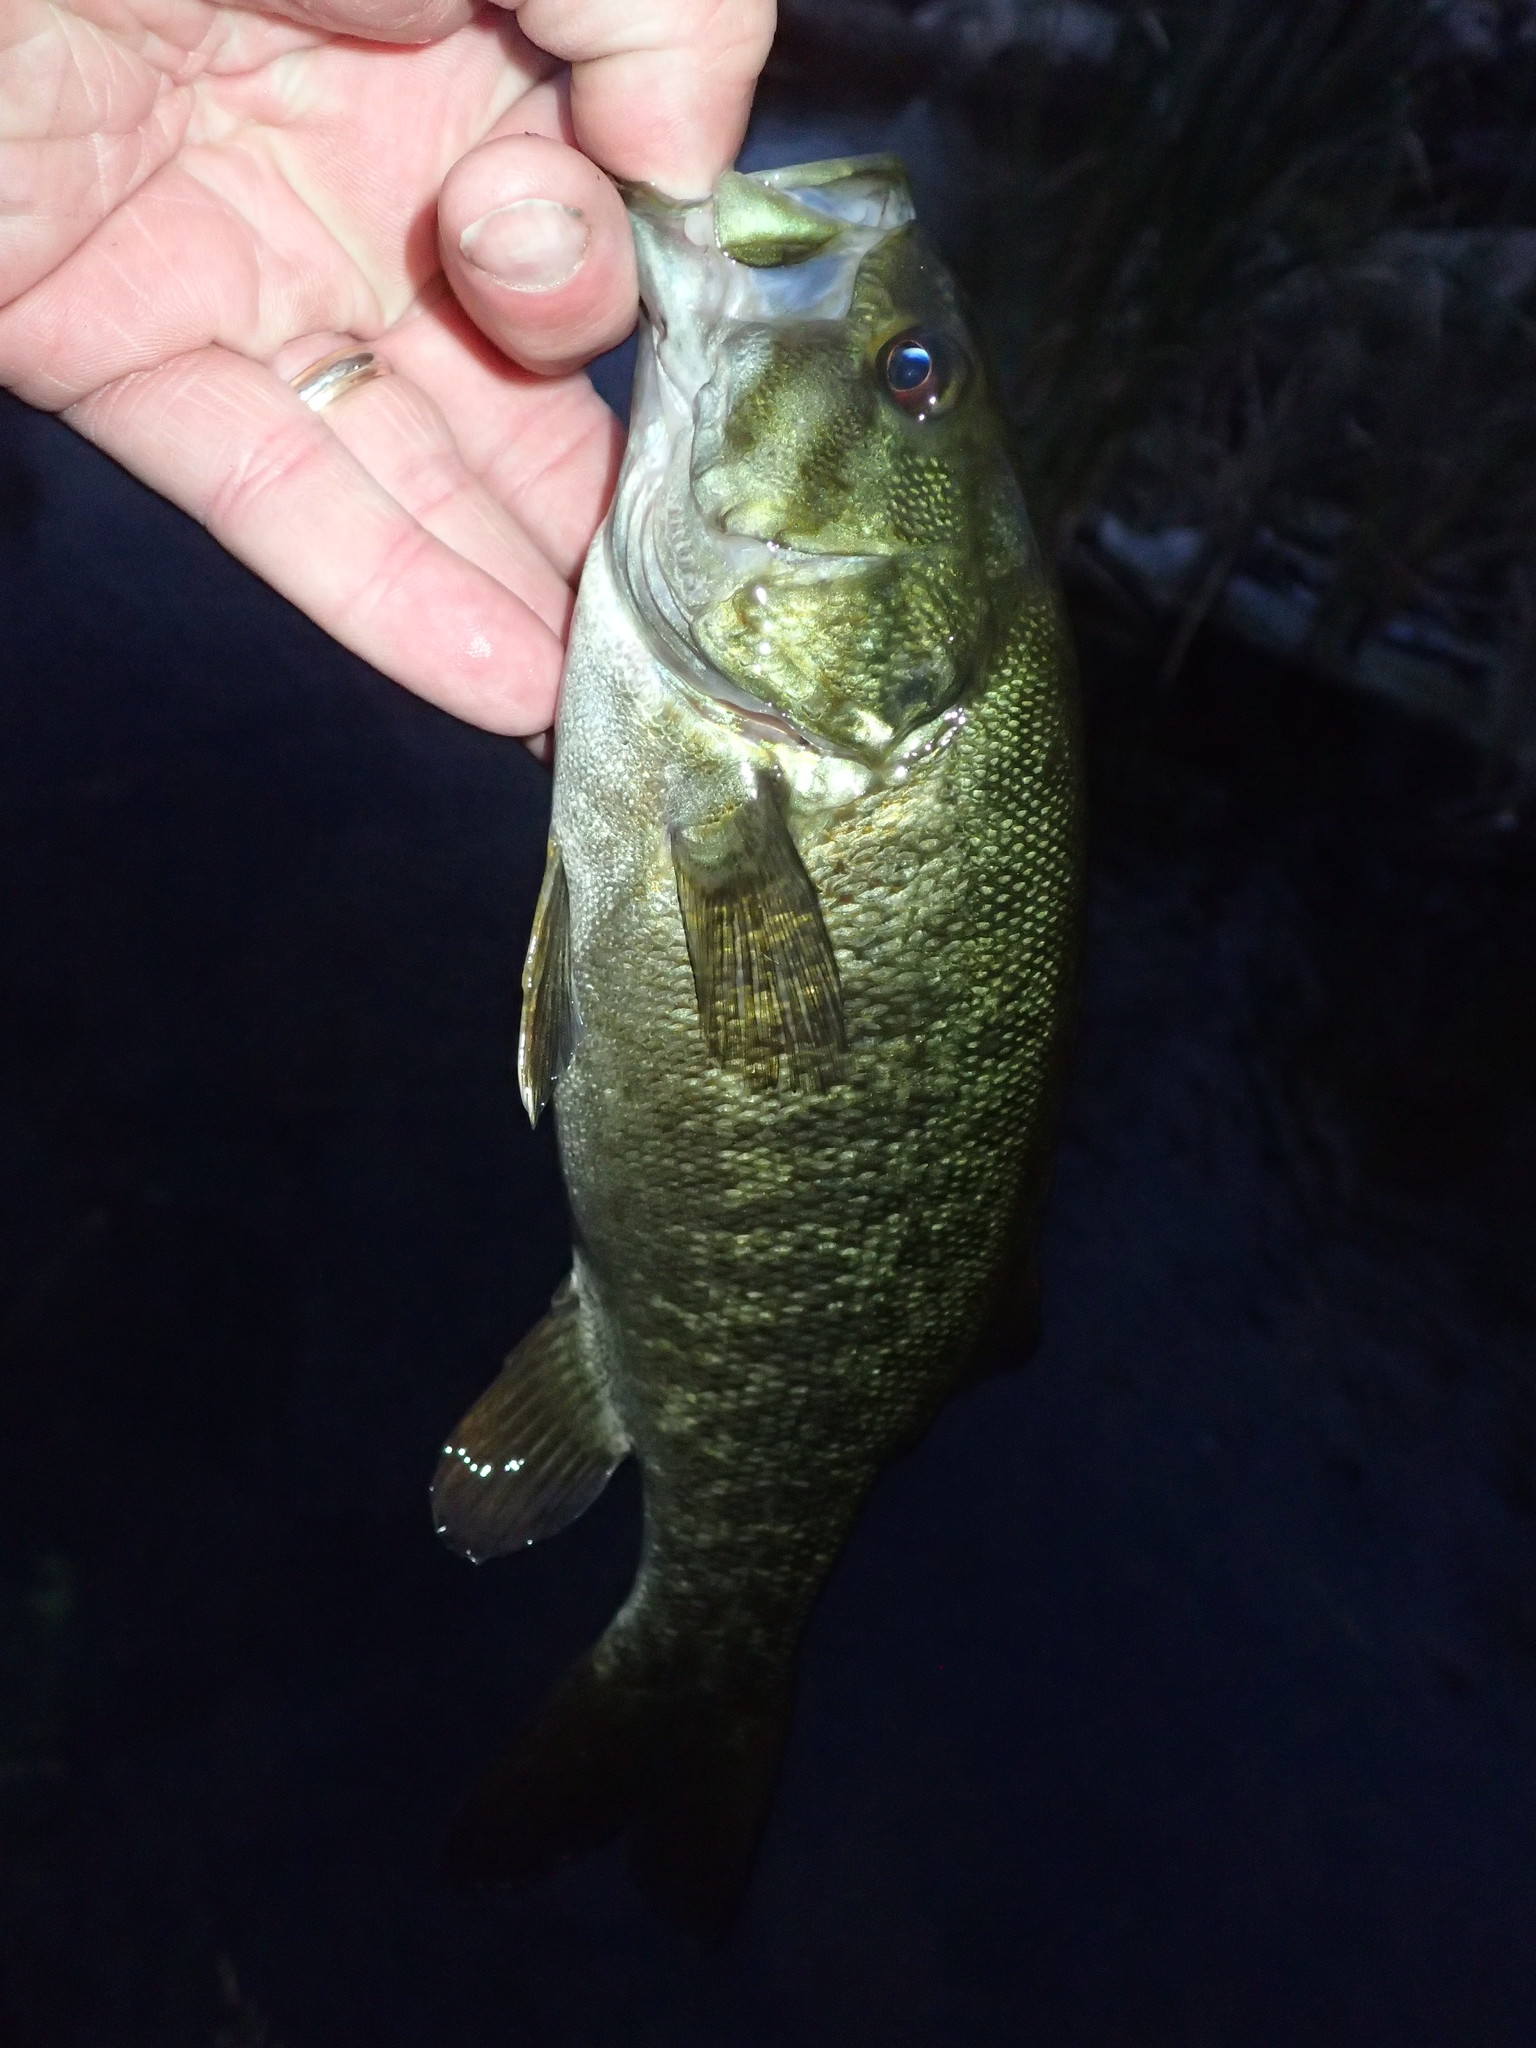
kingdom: Animalia
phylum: Chordata
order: Perciformes
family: Centrarchidae
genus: Micropterus
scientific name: Micropterus dolomieu
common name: Smallmouth bass
